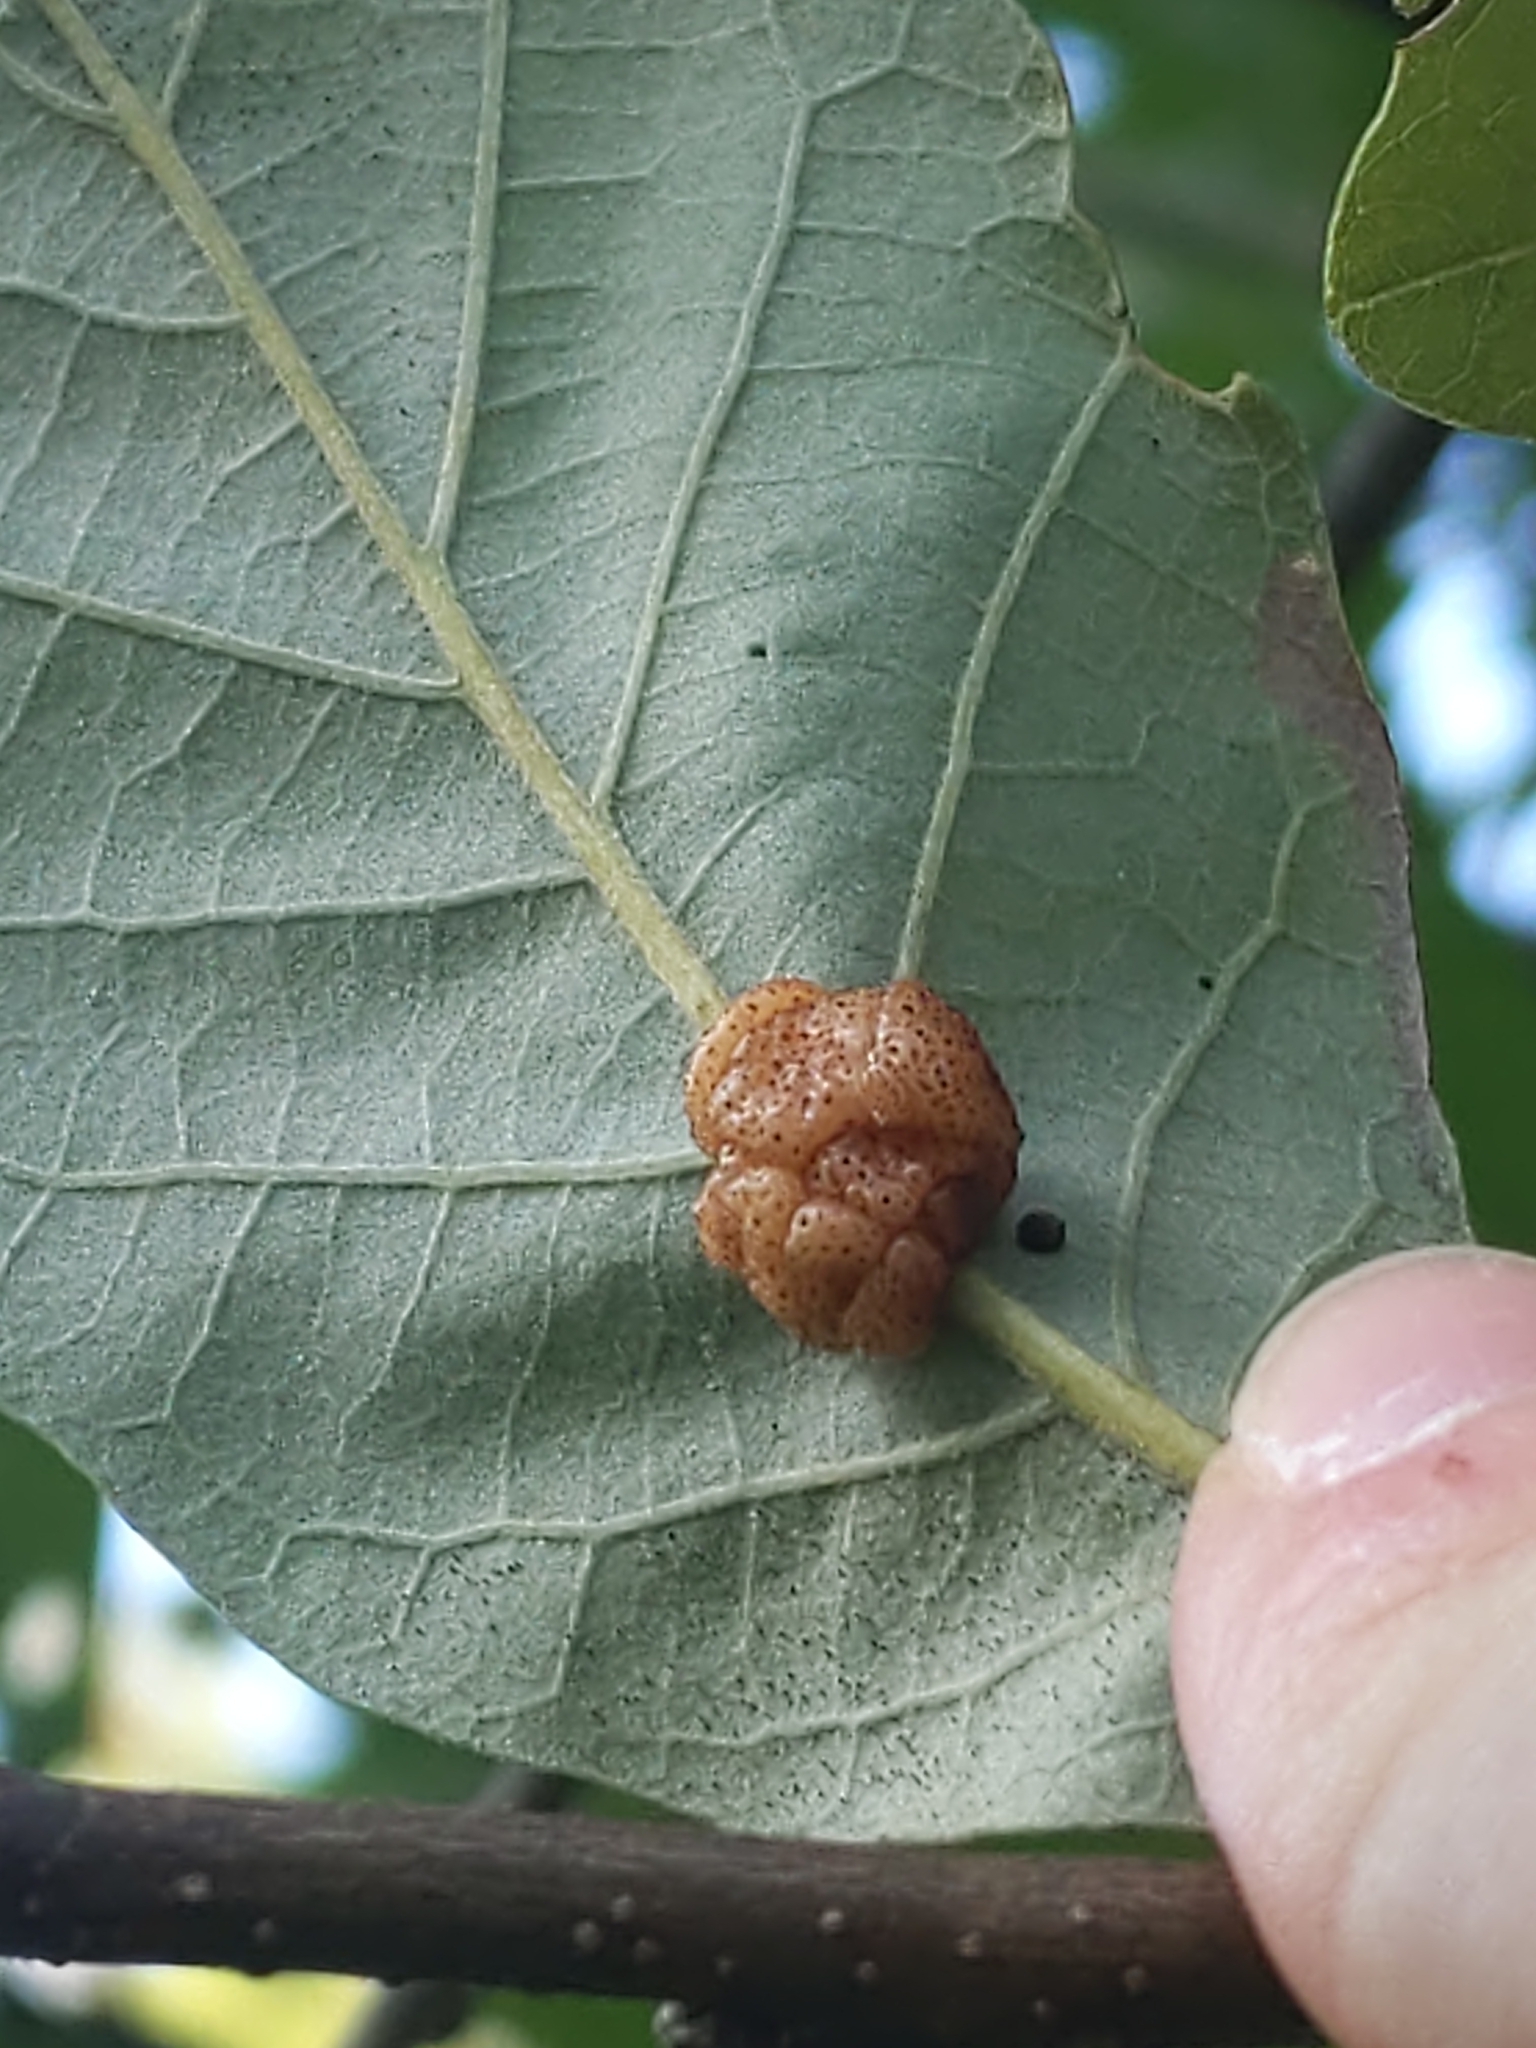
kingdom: Animalia
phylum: Arthropoda
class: Insecta
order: Hymenoptera
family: Cynipidae
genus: Andricus
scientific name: Andricus
